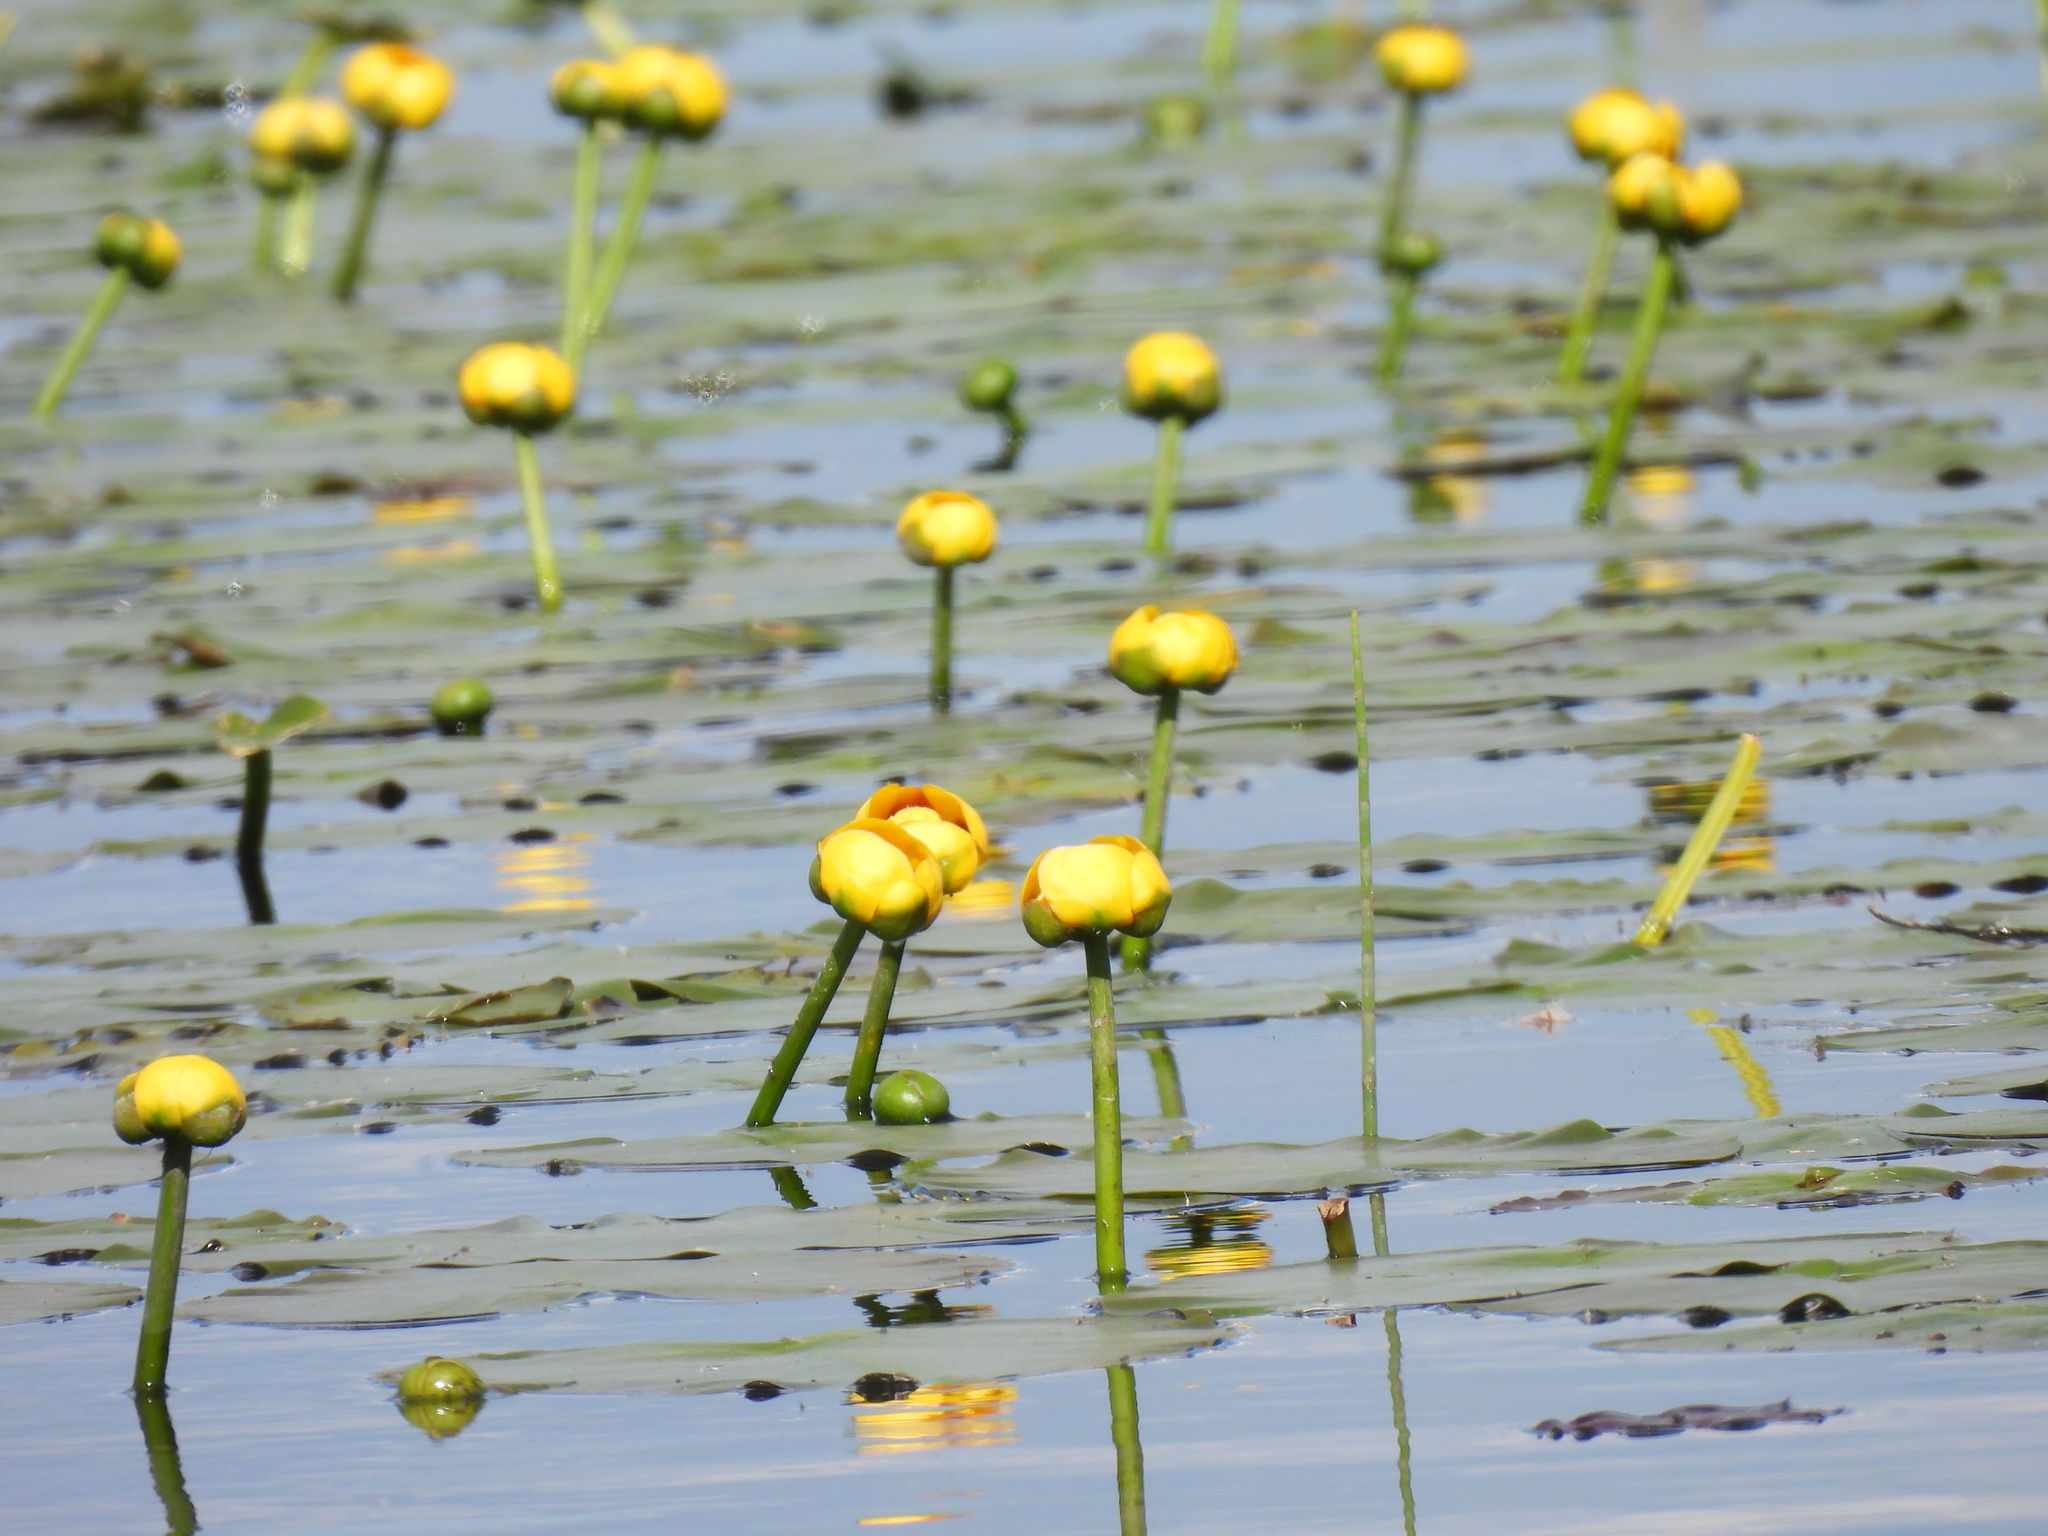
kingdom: Plantae
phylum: Tracheophyta
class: Magnoliopsida
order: Nymphaeales
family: Nymphaeaceae
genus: Nuphar
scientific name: Nuphar variegata
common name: Beaver-root
